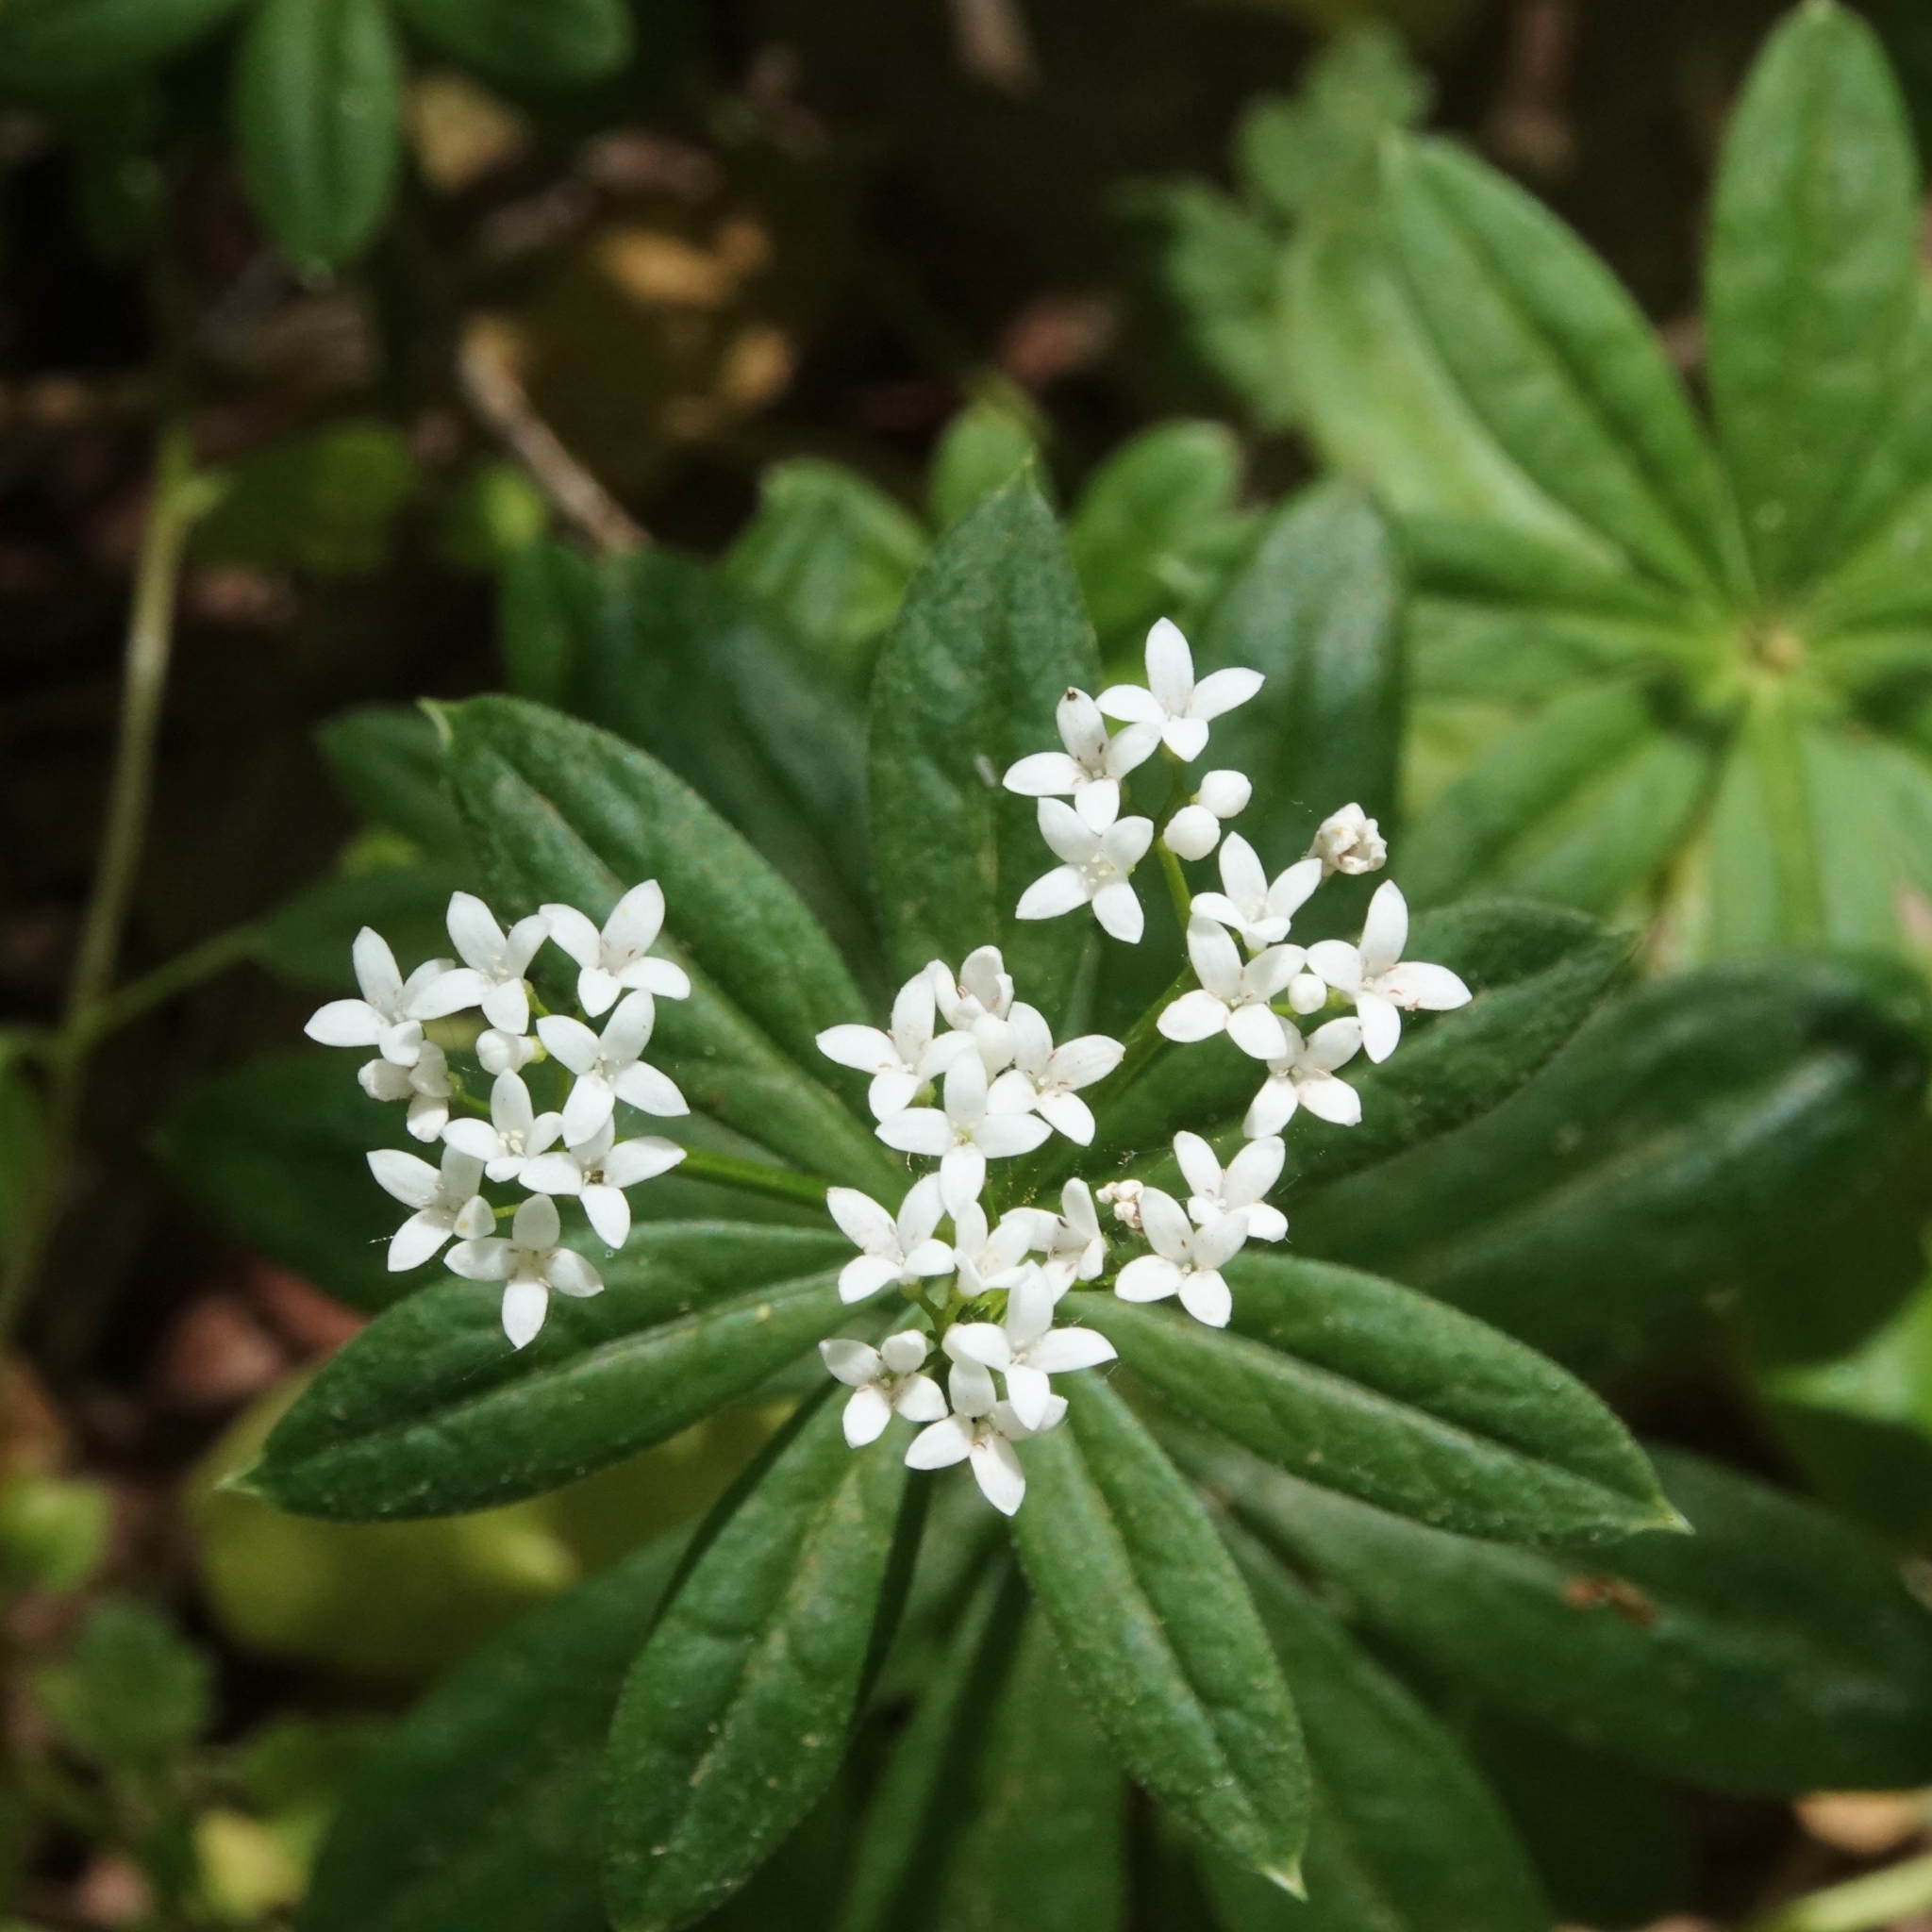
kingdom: Plantae
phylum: Tracheophyta
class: Magnoliopsida
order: Gentianales
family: Rubiaceae
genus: Galium
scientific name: Galium odoratum
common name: Sweet woodruff
